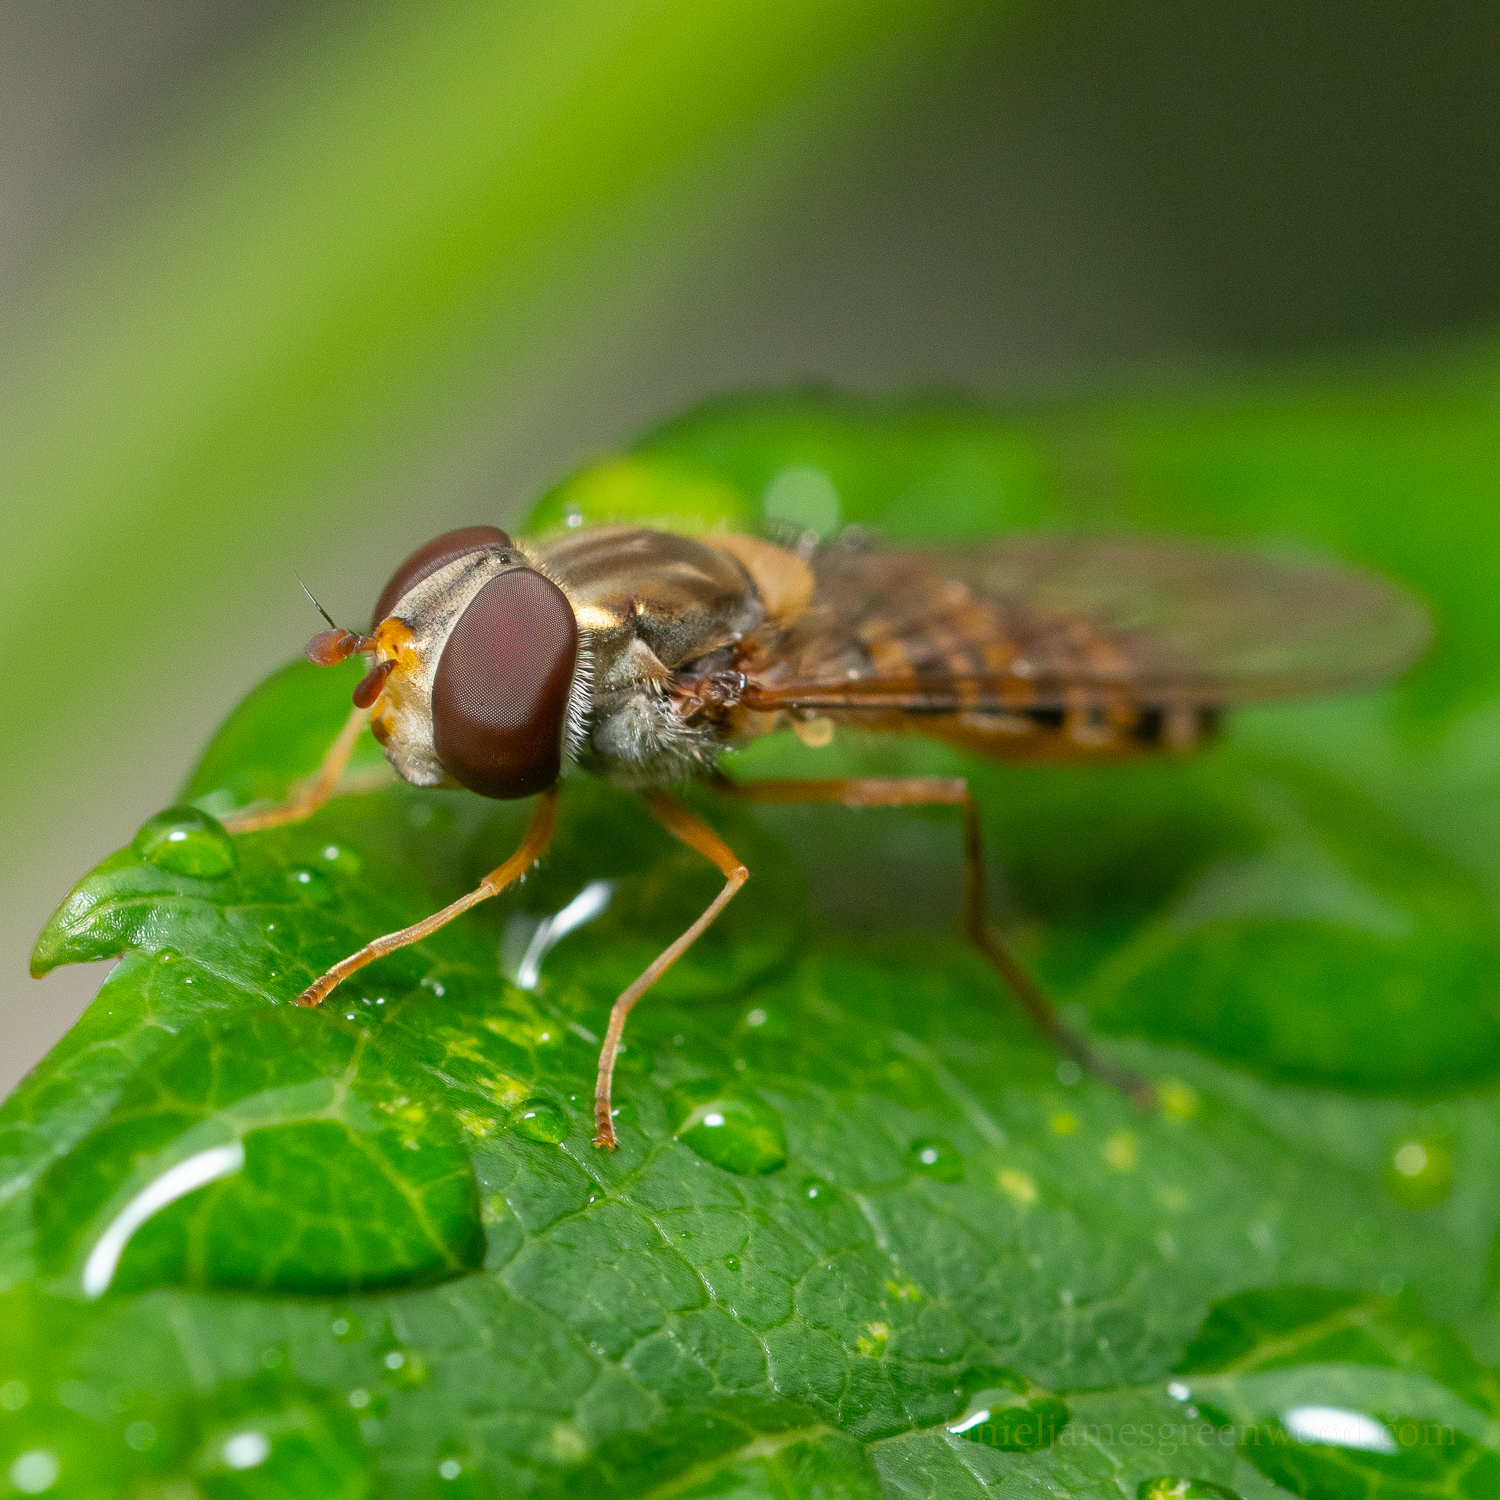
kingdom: Animalia
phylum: Arthropoda
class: Insecta
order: Diptera
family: Syrphidae
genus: Episyrphus
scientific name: Episyrphus balteatus
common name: Marmalade hoverfly
